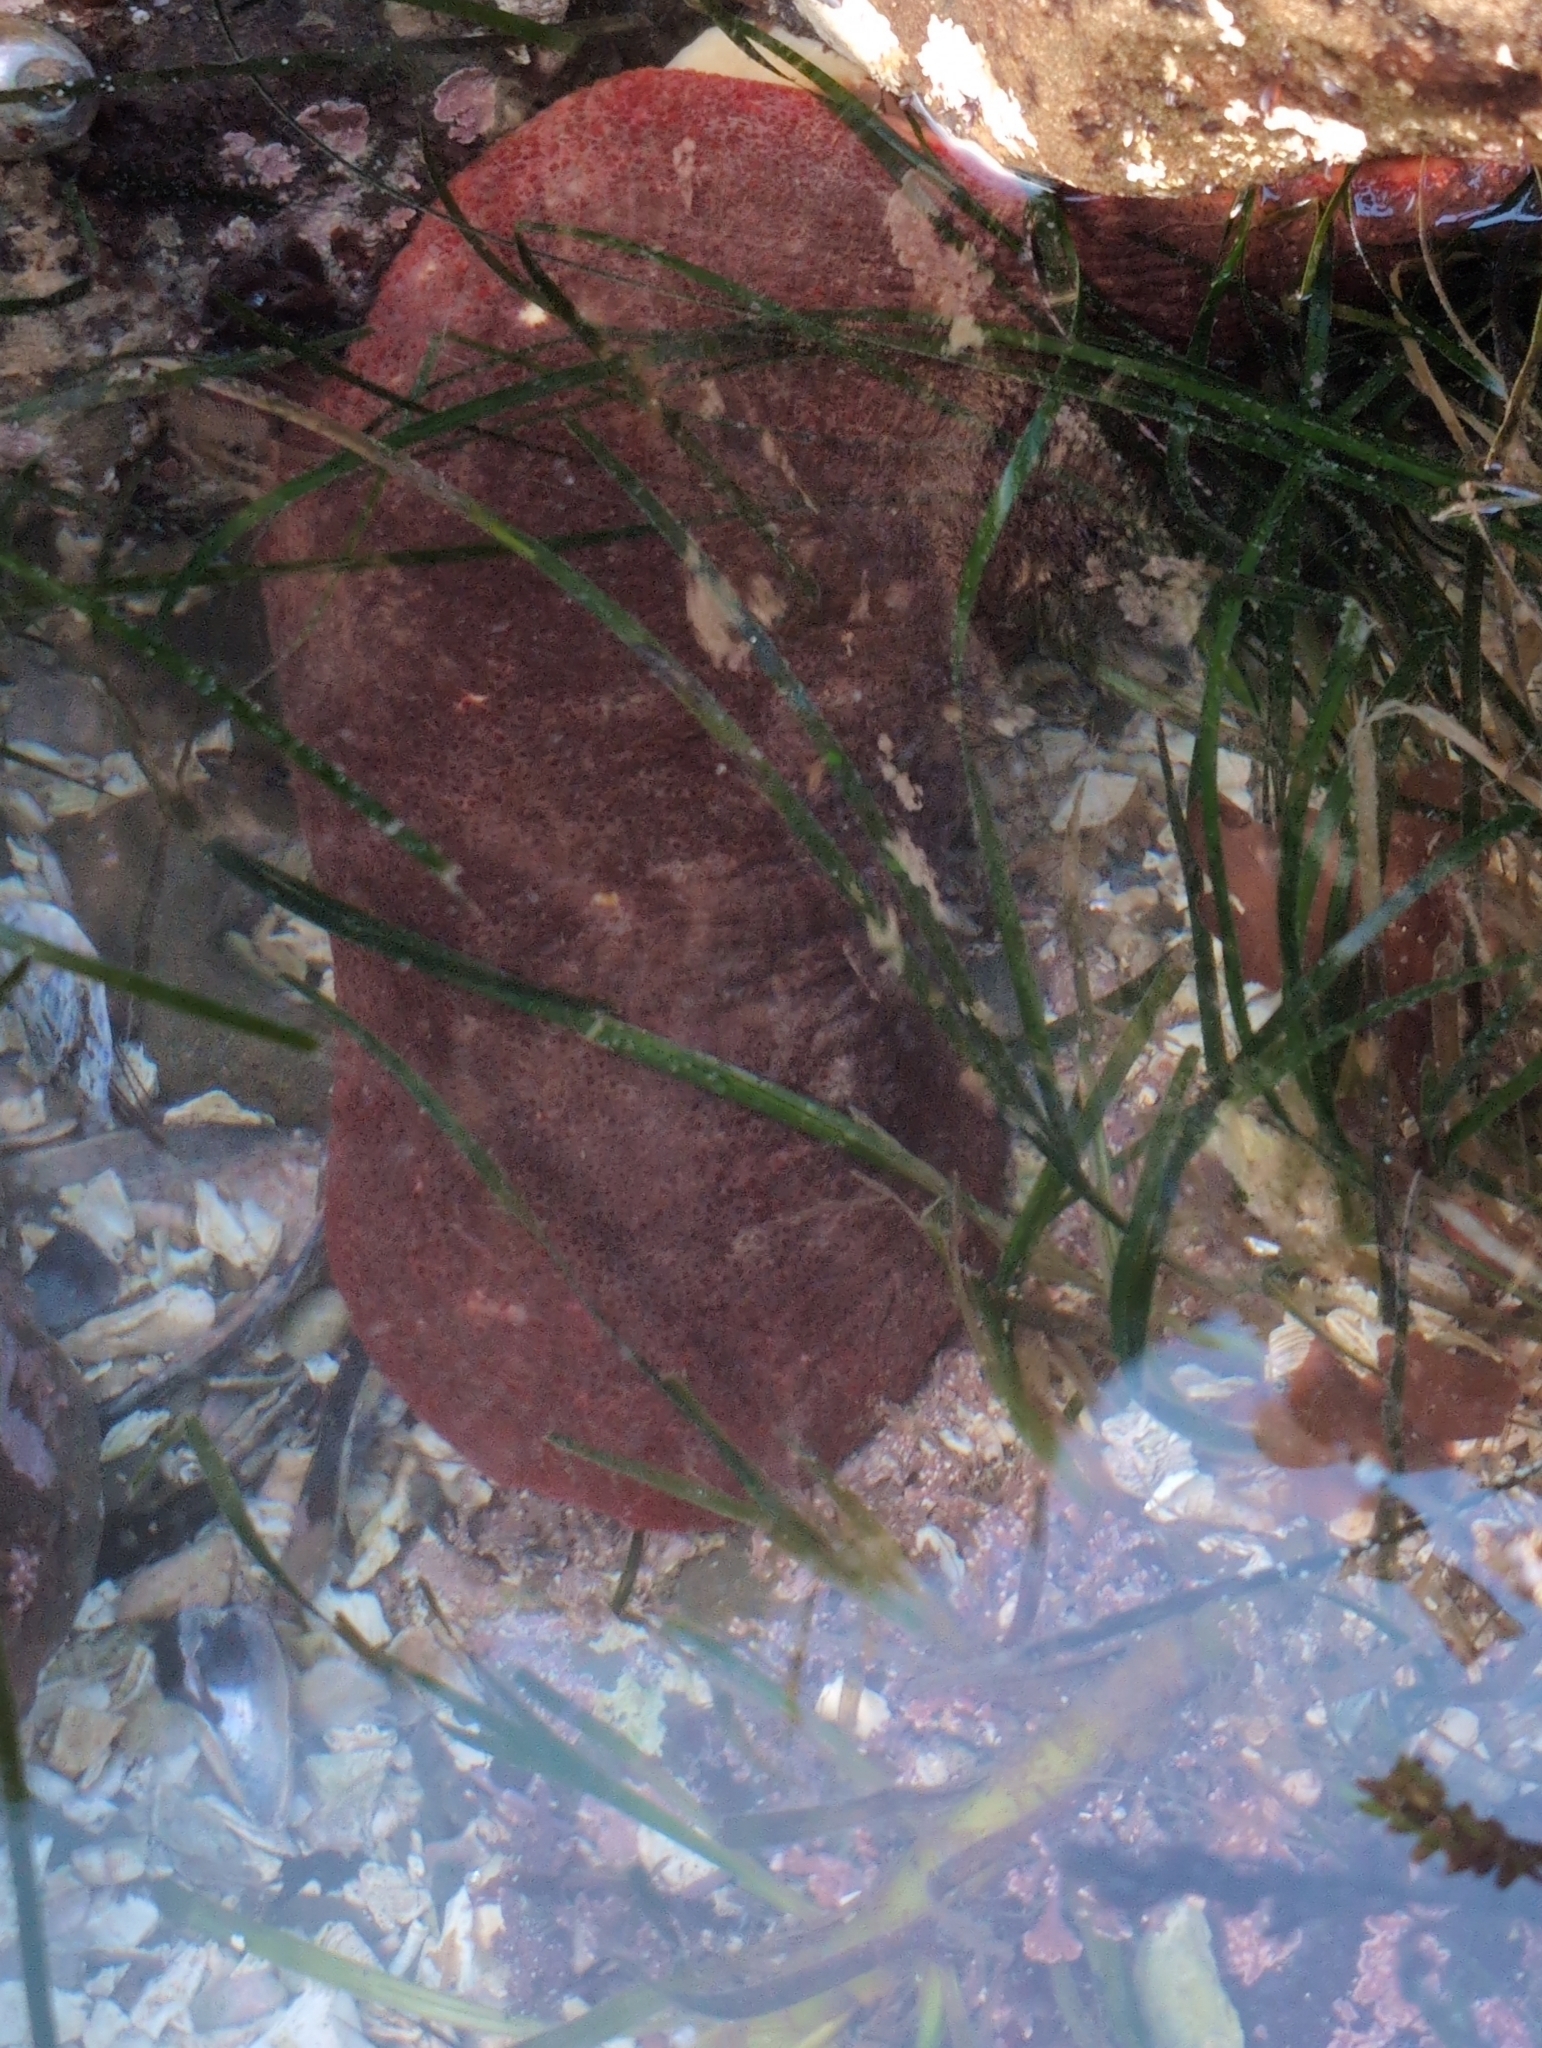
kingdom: Animalia
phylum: Mollusca
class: Polyplacophora
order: Chitonida
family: Acanthochitonidae
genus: Cryptochiton
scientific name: Cryptochiton stelleri
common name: Giant pacific chiton
